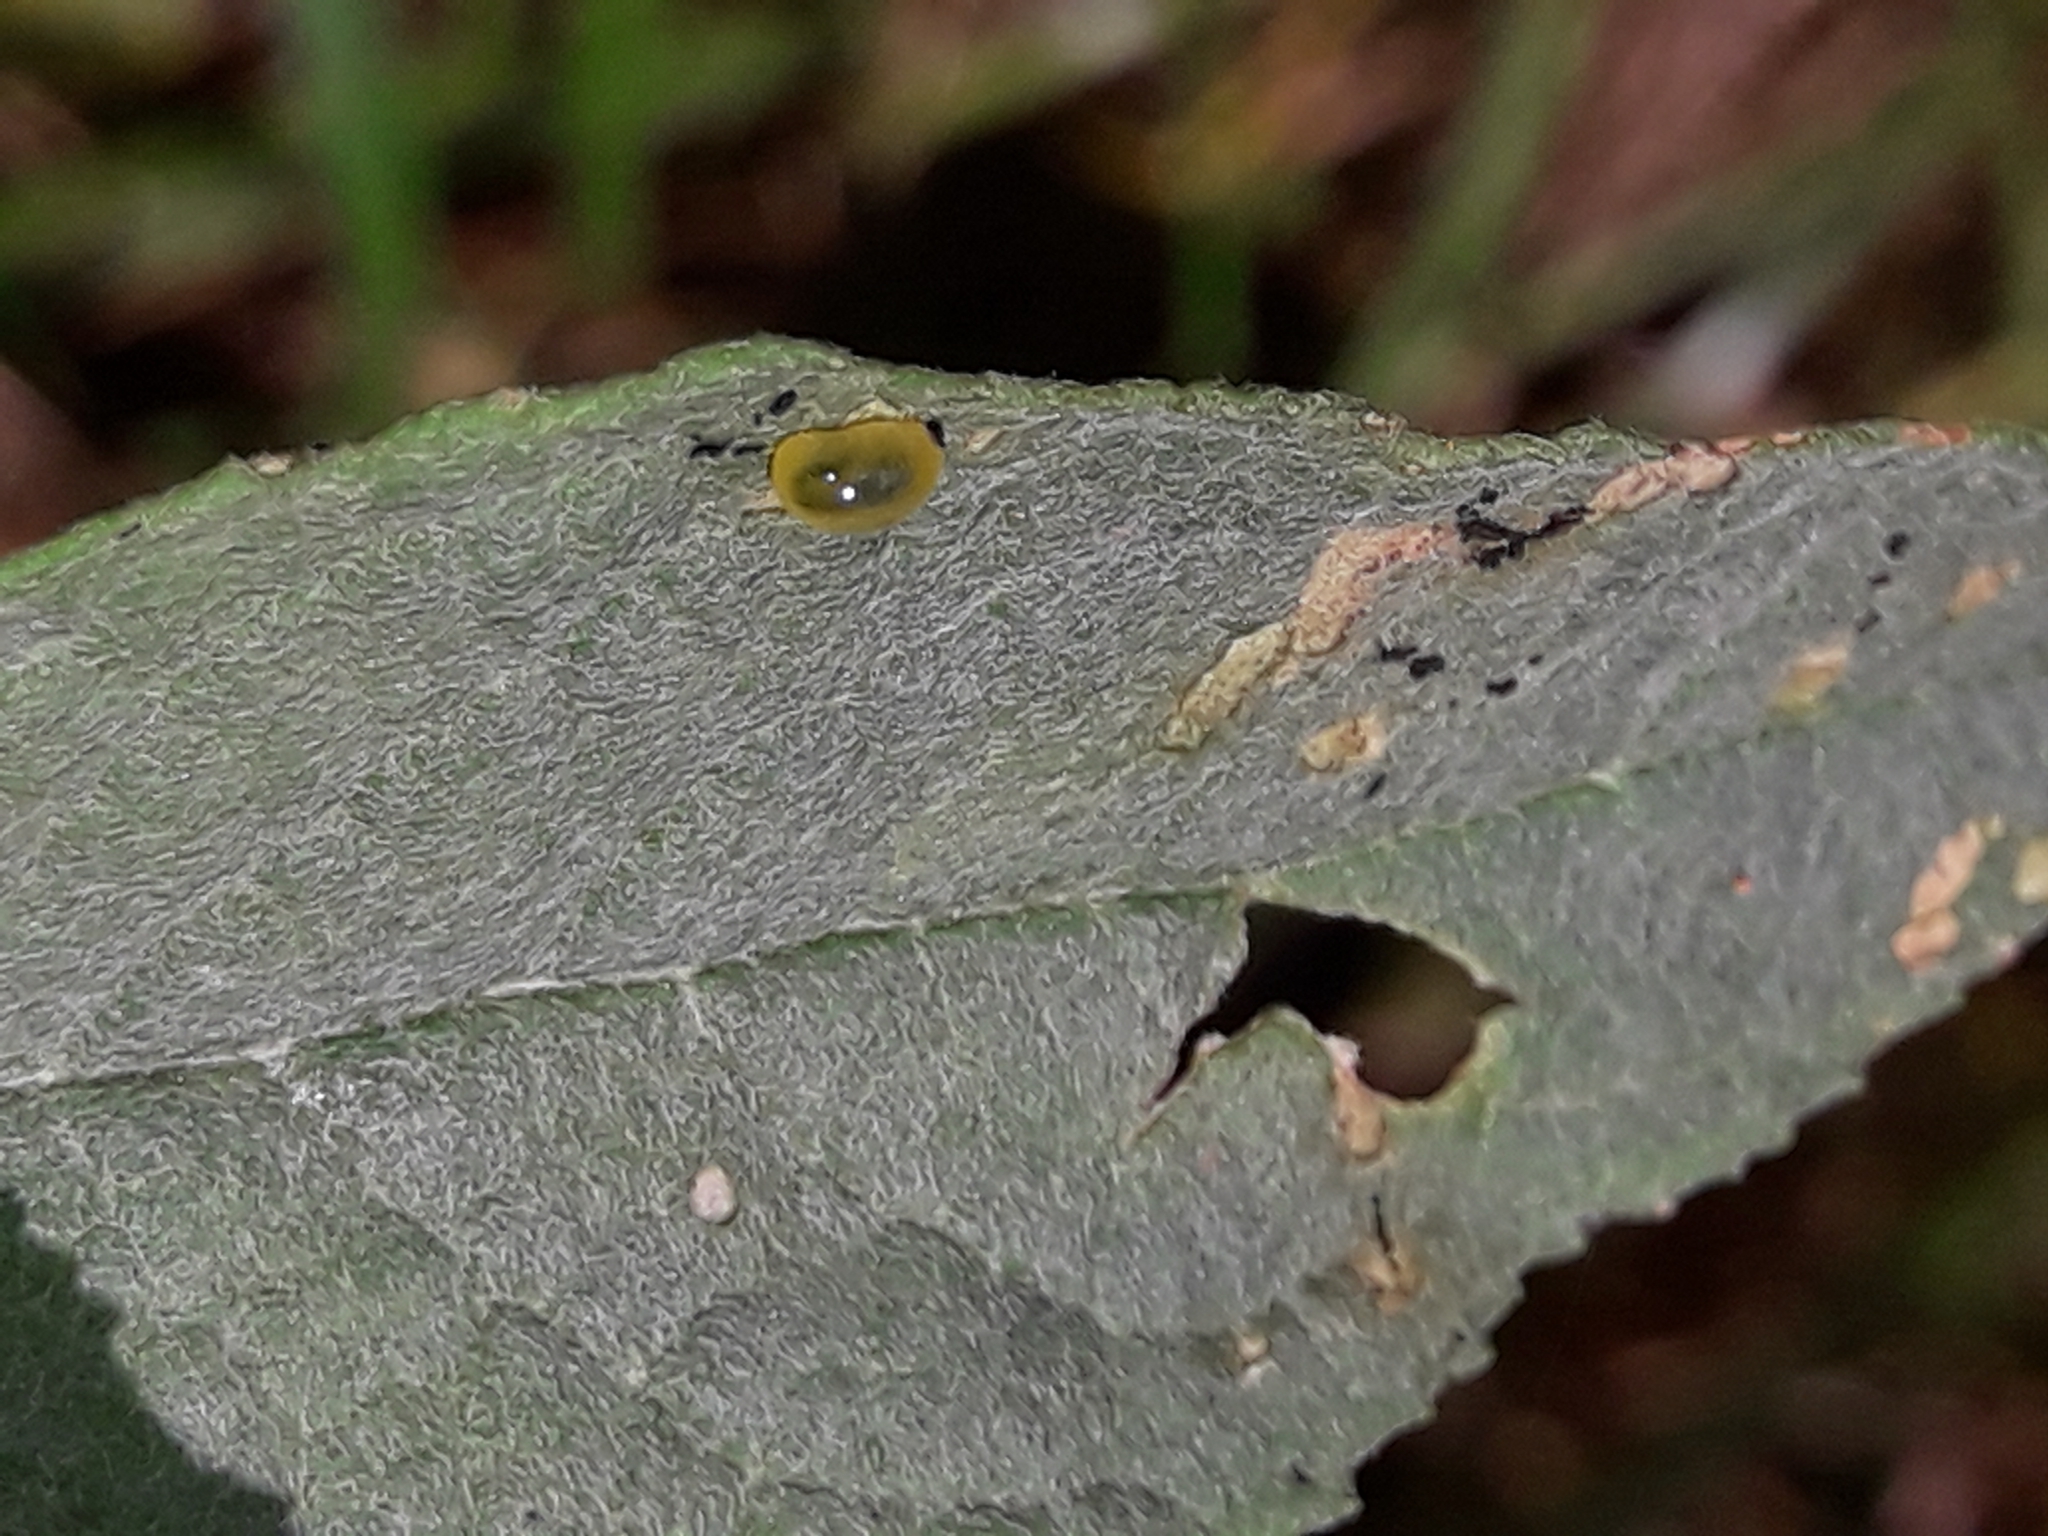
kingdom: Animalia
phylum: Arthropoda
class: Insecta
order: Coleoptera
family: Curculionidae
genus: Cleopus
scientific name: Cleopus japonicus
